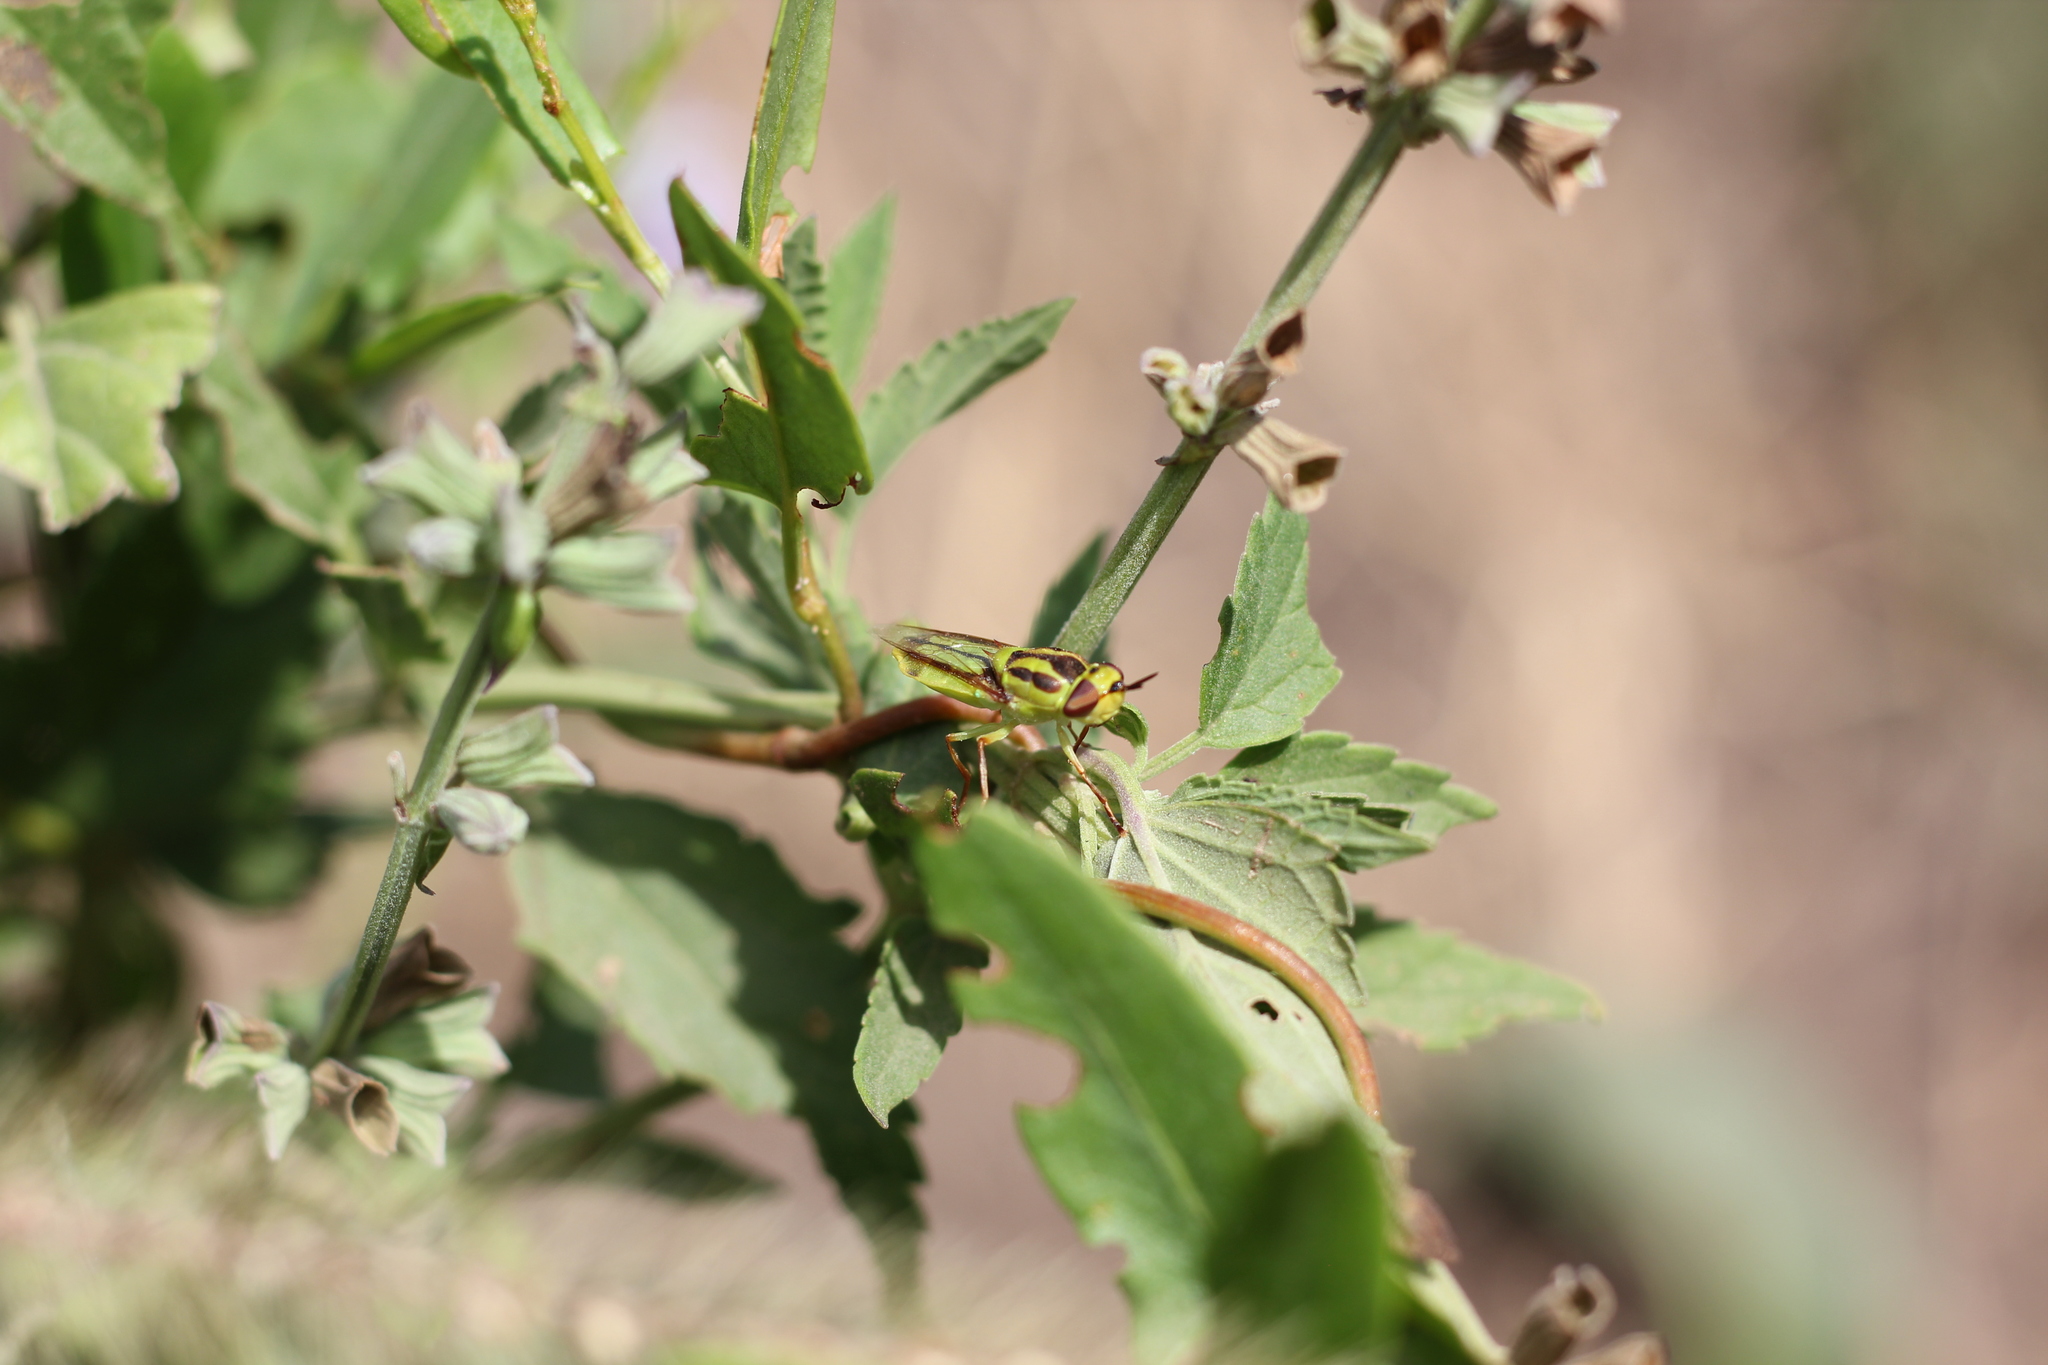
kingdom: Animalia
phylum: Arthropoda
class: Insecta
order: Diptera
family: Stratiomyidae
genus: Hedriodiscus
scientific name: Hedriodiscus pulcher
